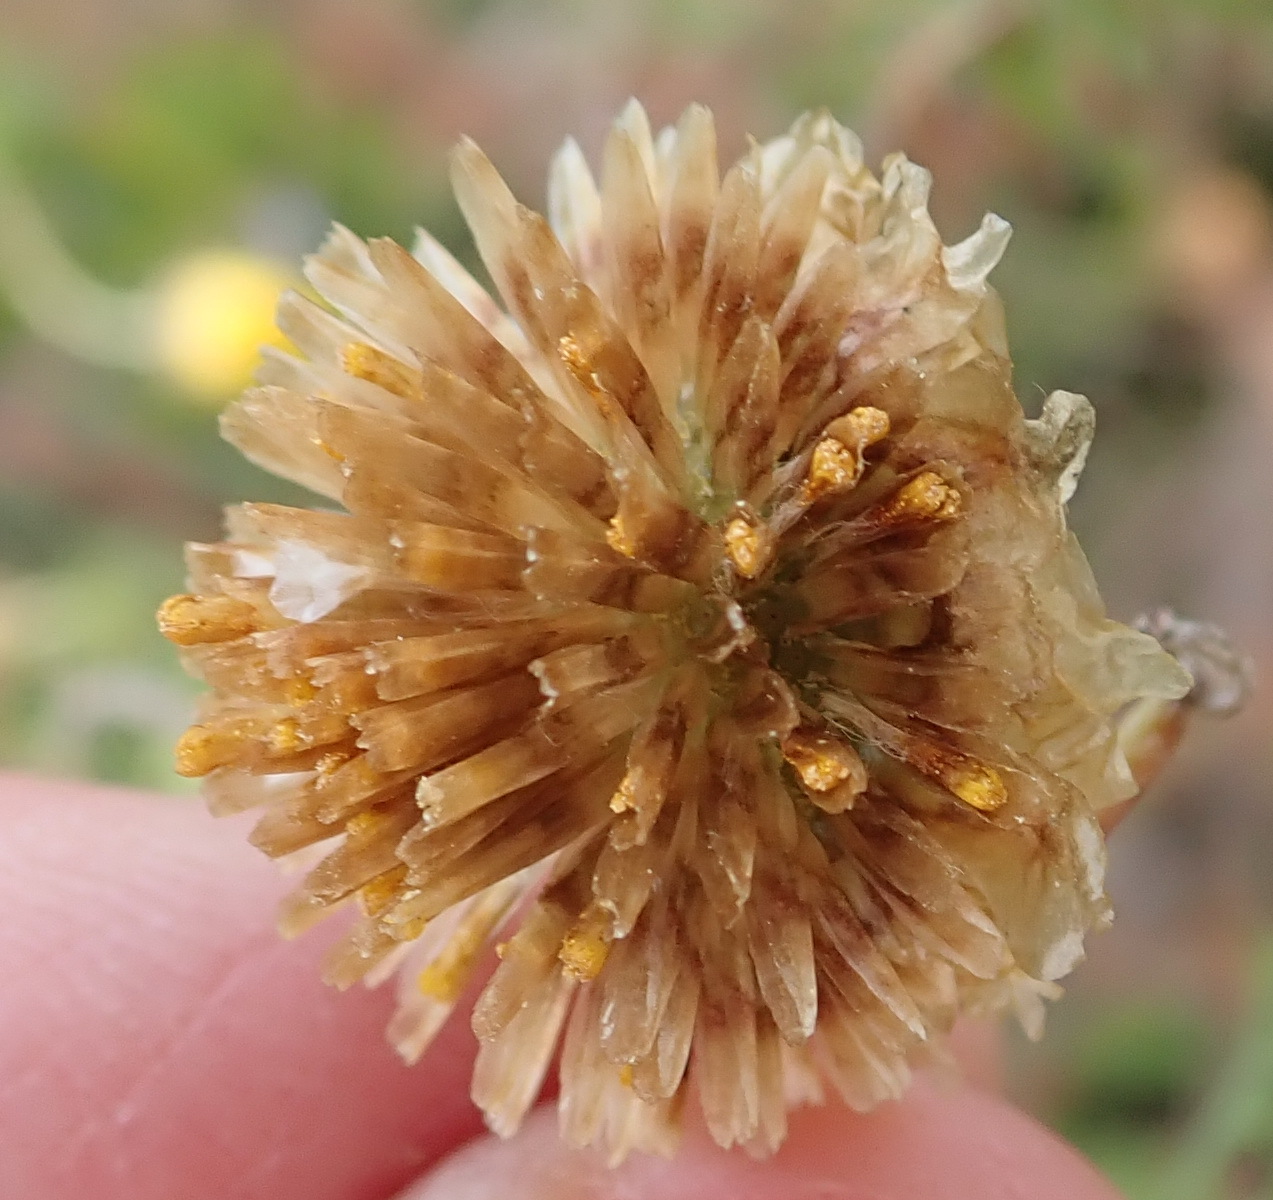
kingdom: Plantae
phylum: Tracheophyta
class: Magnoliopsida
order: Asterales
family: Asteraceae
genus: Ursinia
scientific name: Ursinia scariosa
